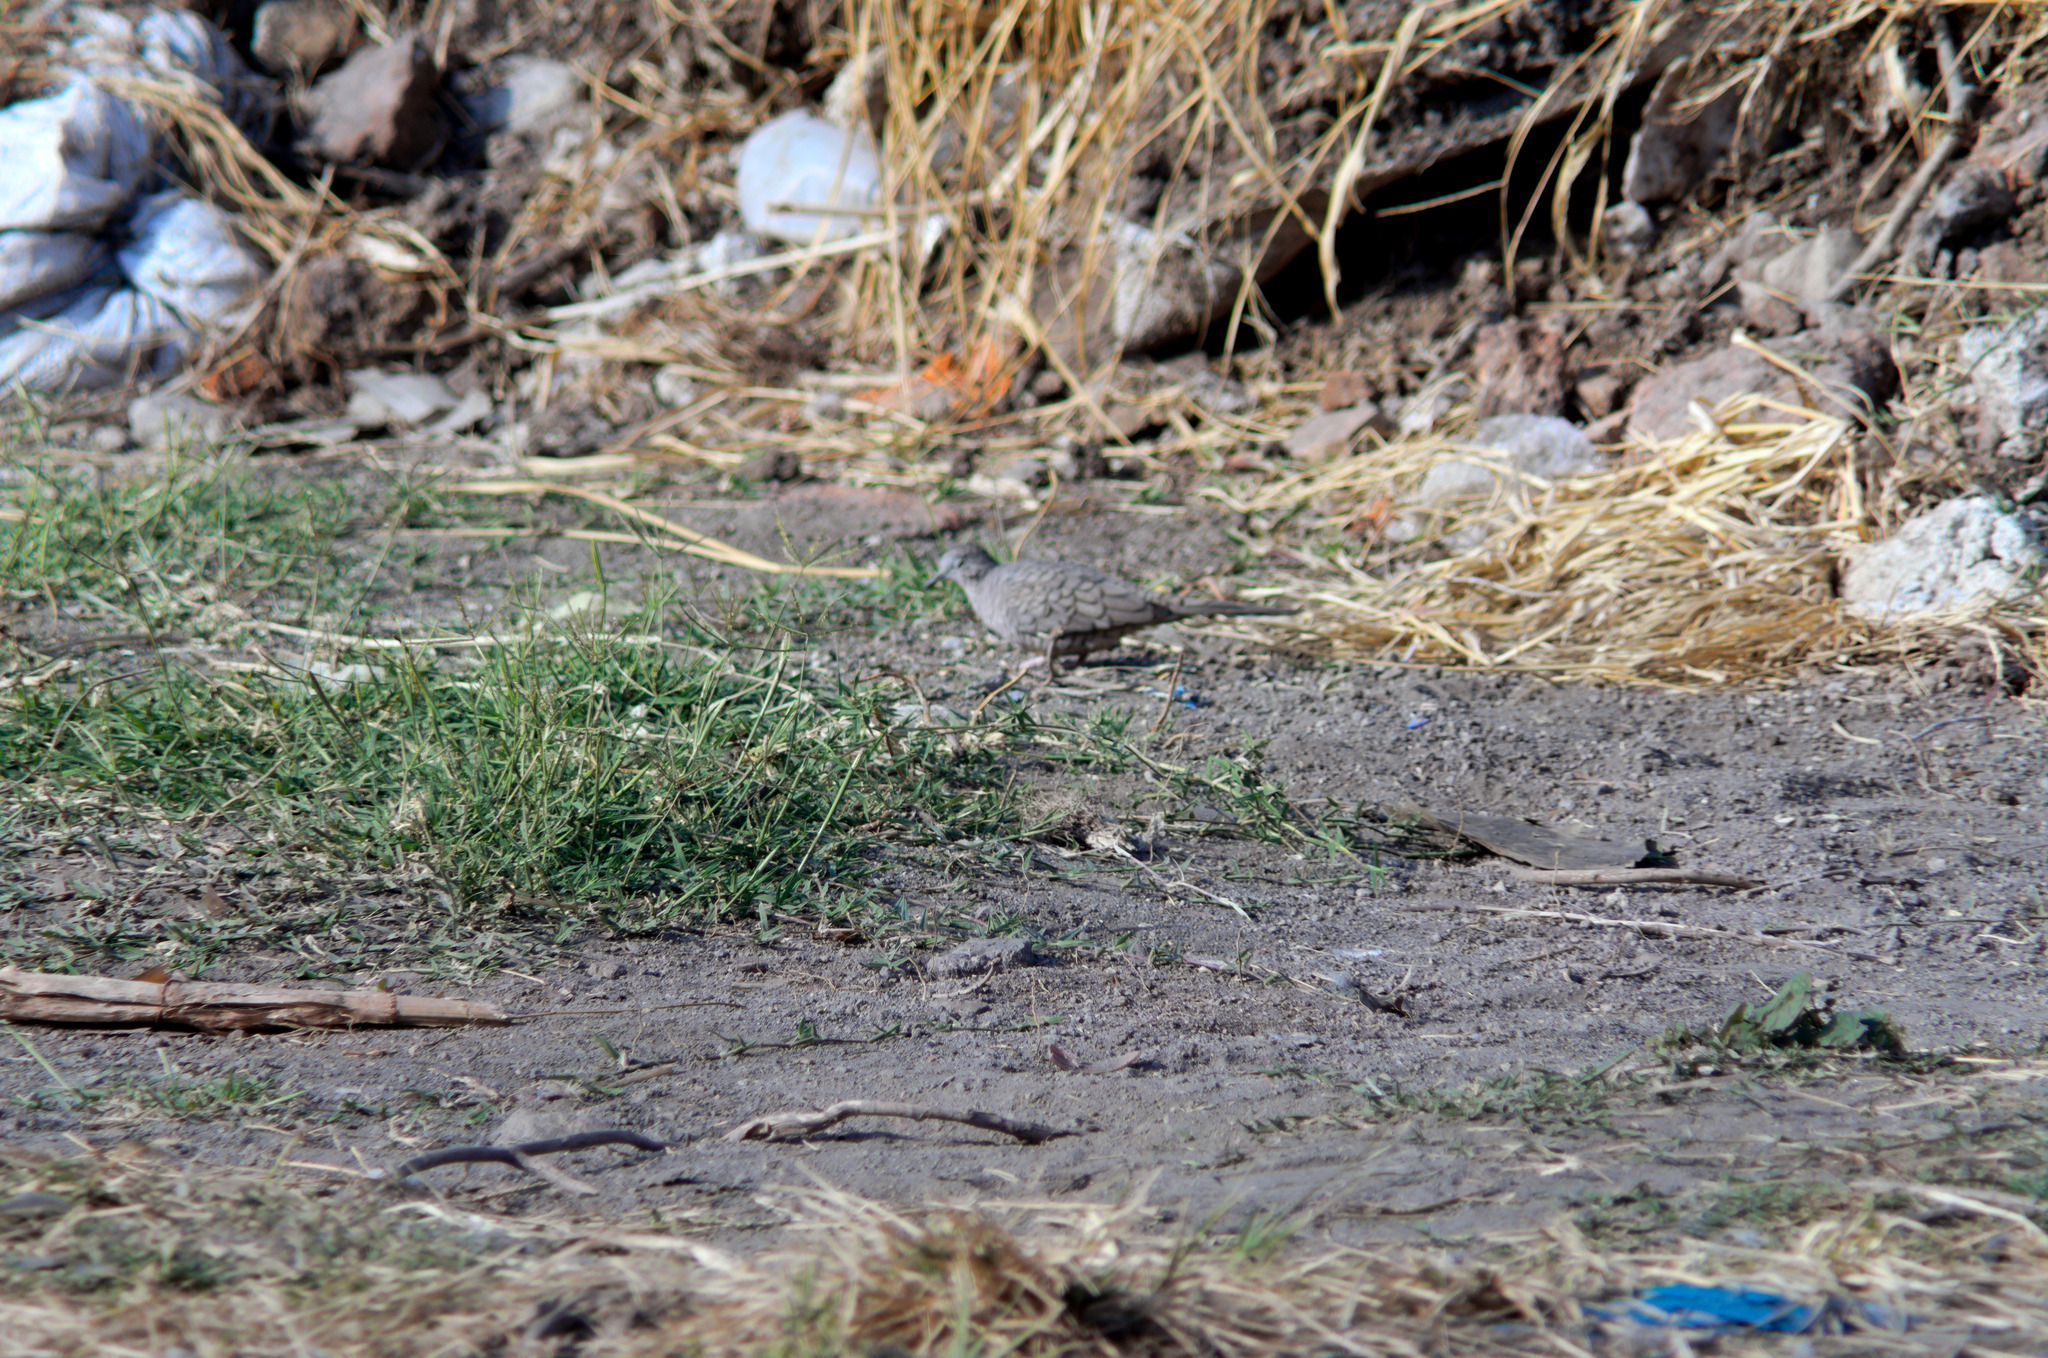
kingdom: Animalia
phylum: Chordata
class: Aves
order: Columbiformes
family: Columbidae
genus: Columbina
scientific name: Columbina inca
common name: Inca dove
